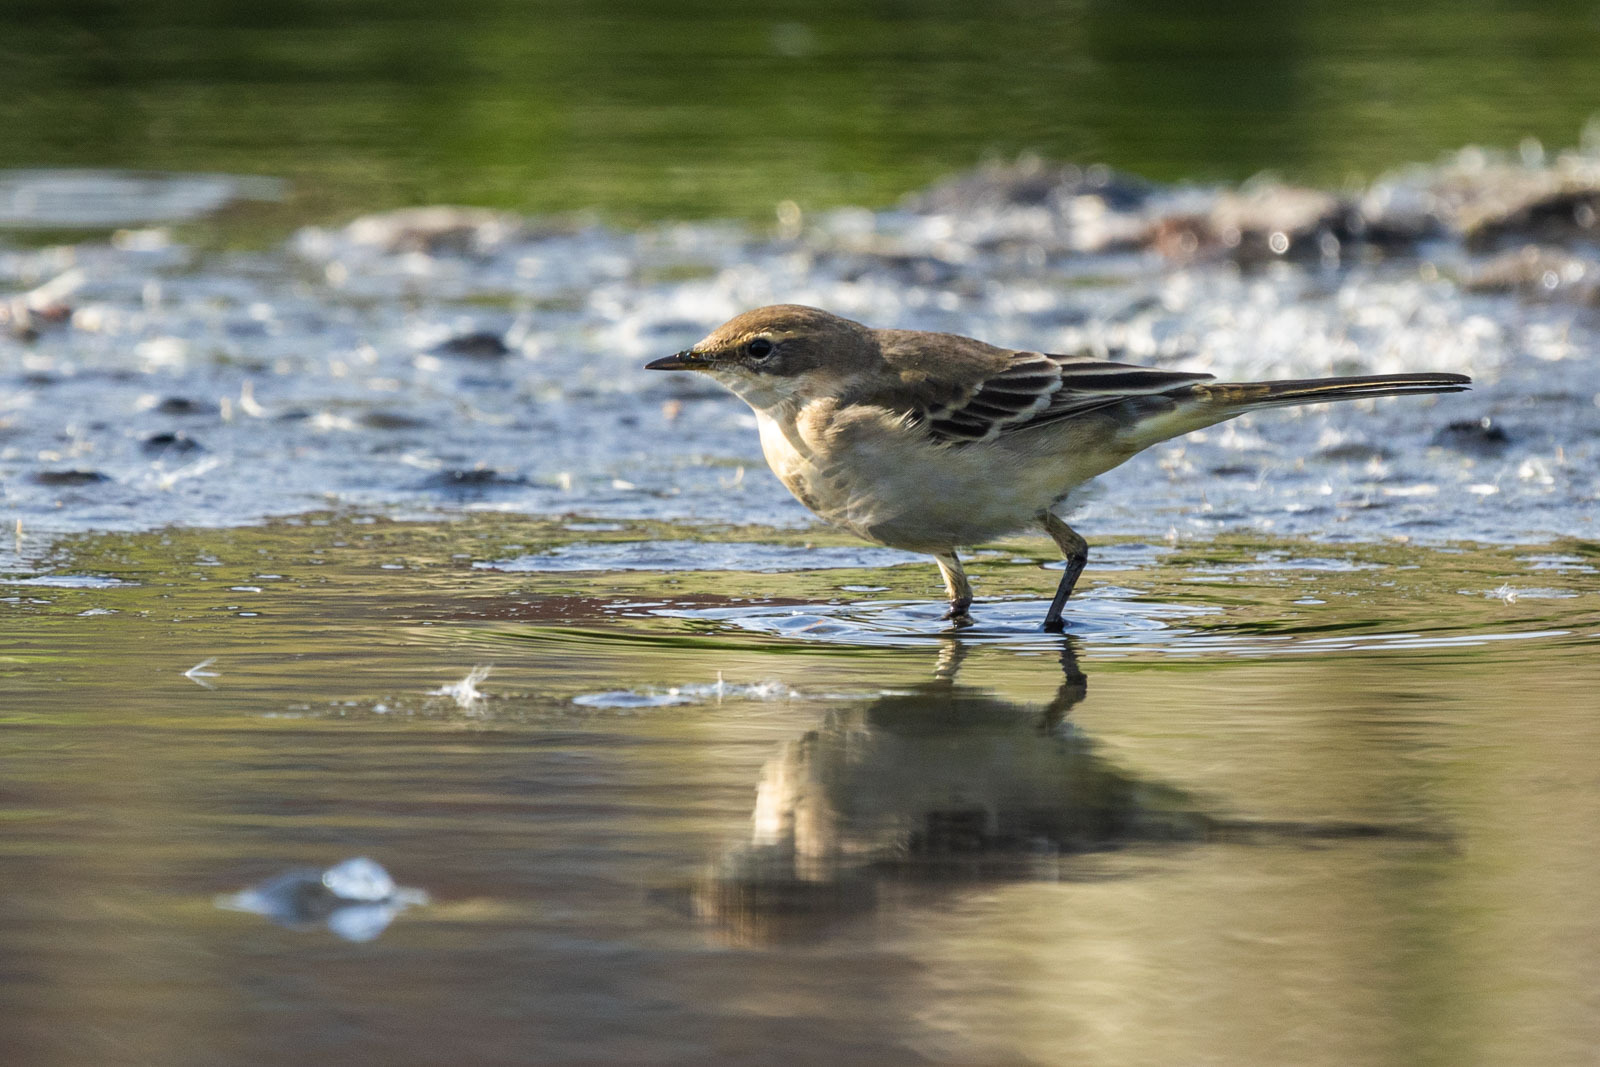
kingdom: Animalia
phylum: Chordata
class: Aves
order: Passeriformes
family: Motacillidae
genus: Motacilla
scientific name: Motacilla tschutschensis
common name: Eastern yellow wagtail
